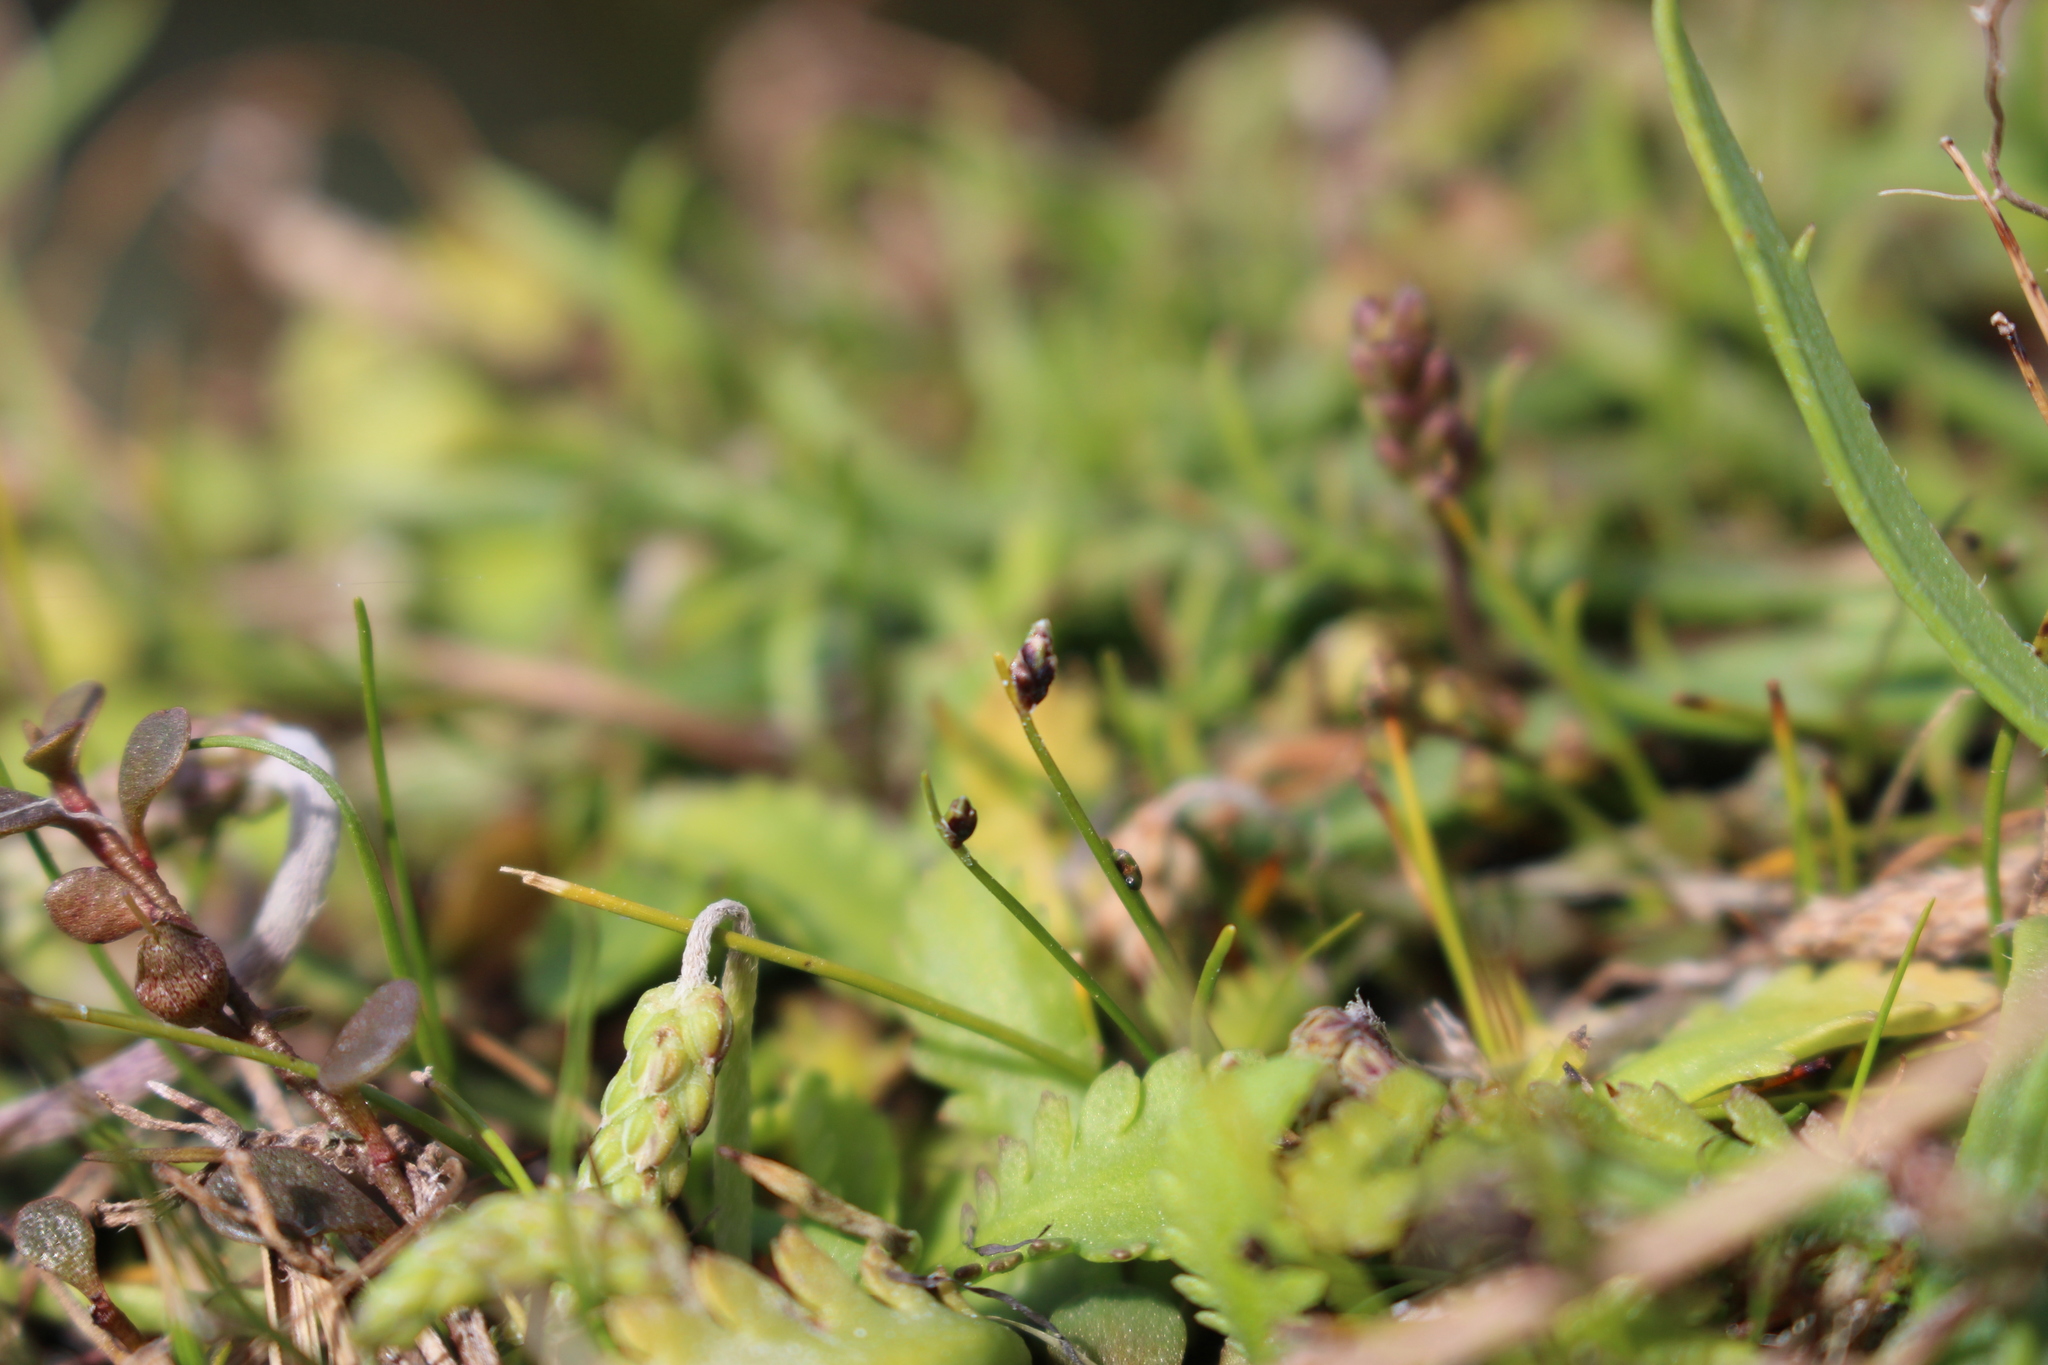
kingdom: Plantae
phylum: Tracheophyta
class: Liliopsida
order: Poales
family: Cyperaceae
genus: Isolepis
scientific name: Isolepis cernua
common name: Slender club-rush
